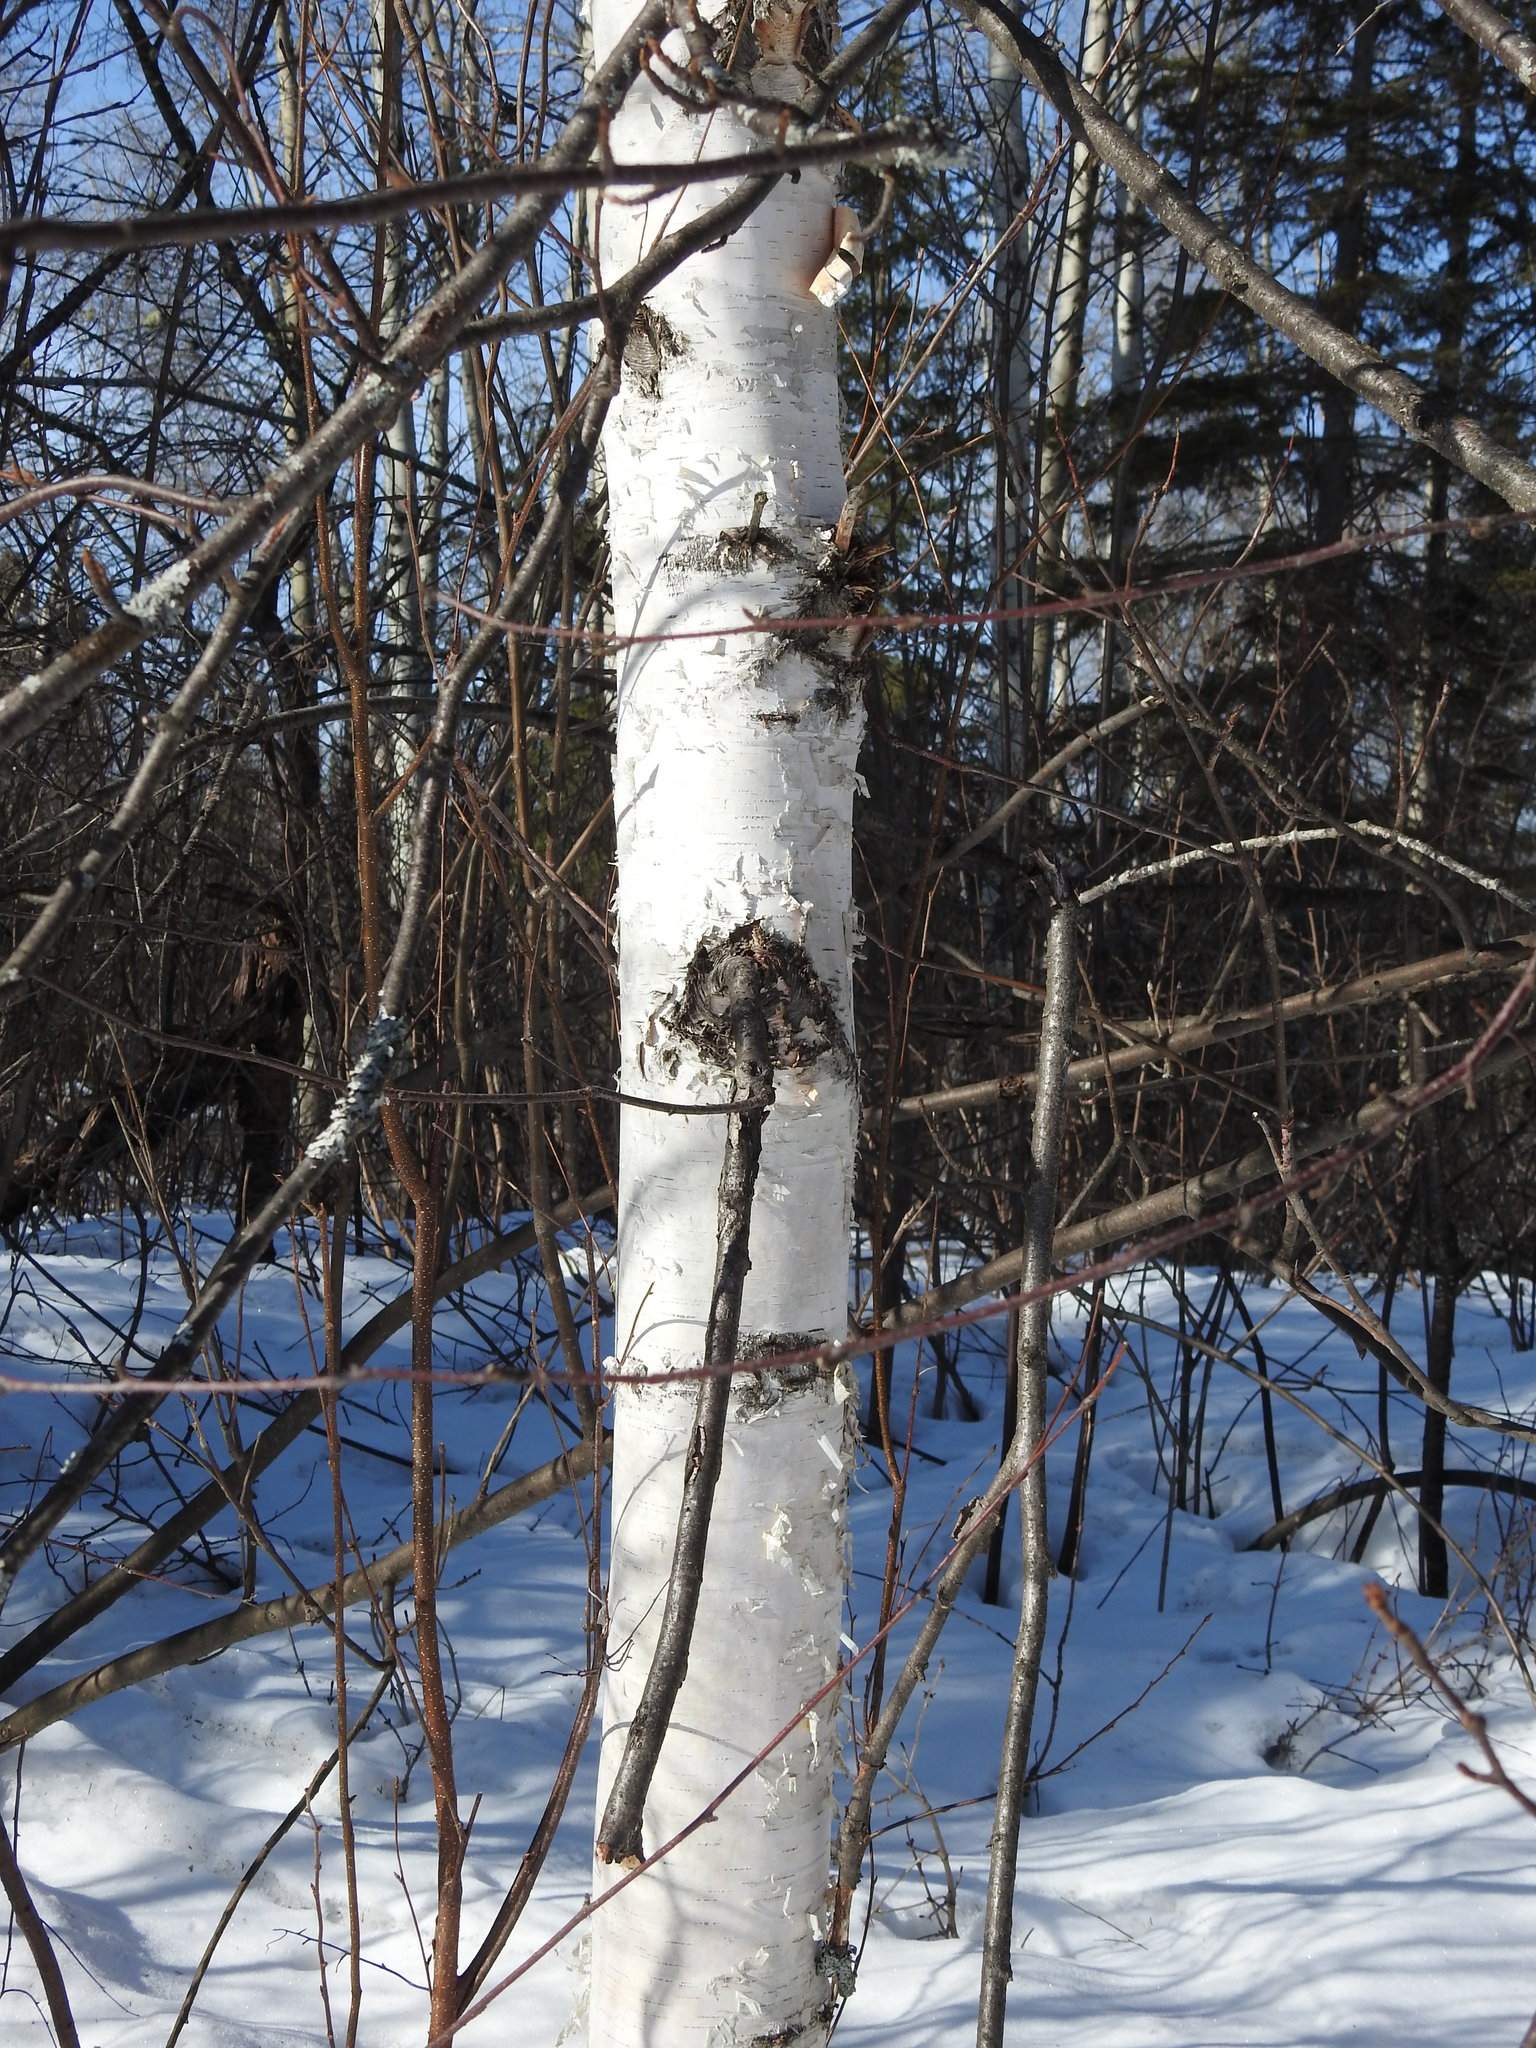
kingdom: Plantae
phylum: Tracheophyta
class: Magnoliopsida
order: Fagales
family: Betulaceae
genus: Betula
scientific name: Betula papyrifera
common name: Paper birch
